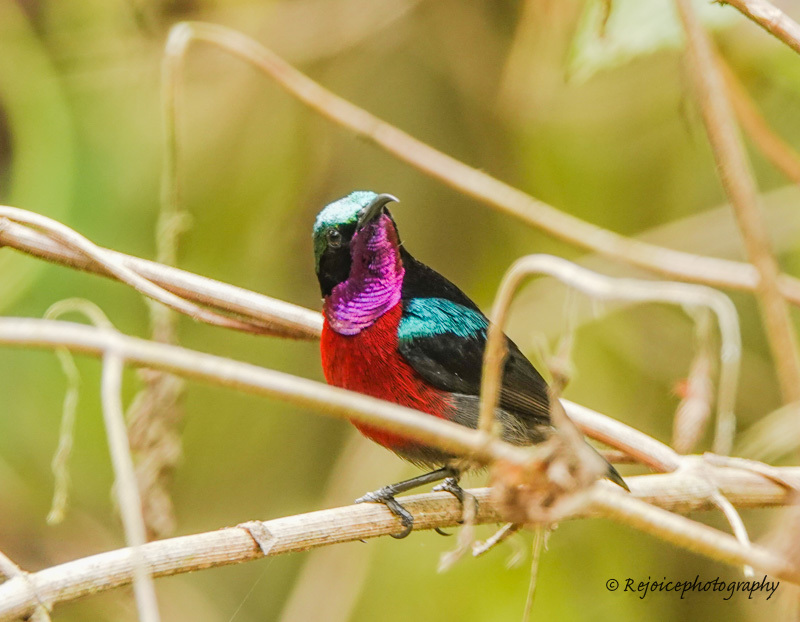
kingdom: Animalia
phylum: Chordata
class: Aves
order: Passeriformes
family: Nectariniidae
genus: Leptocoma
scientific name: Leptocoma brasiliana
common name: Van hasselt's sunbird
